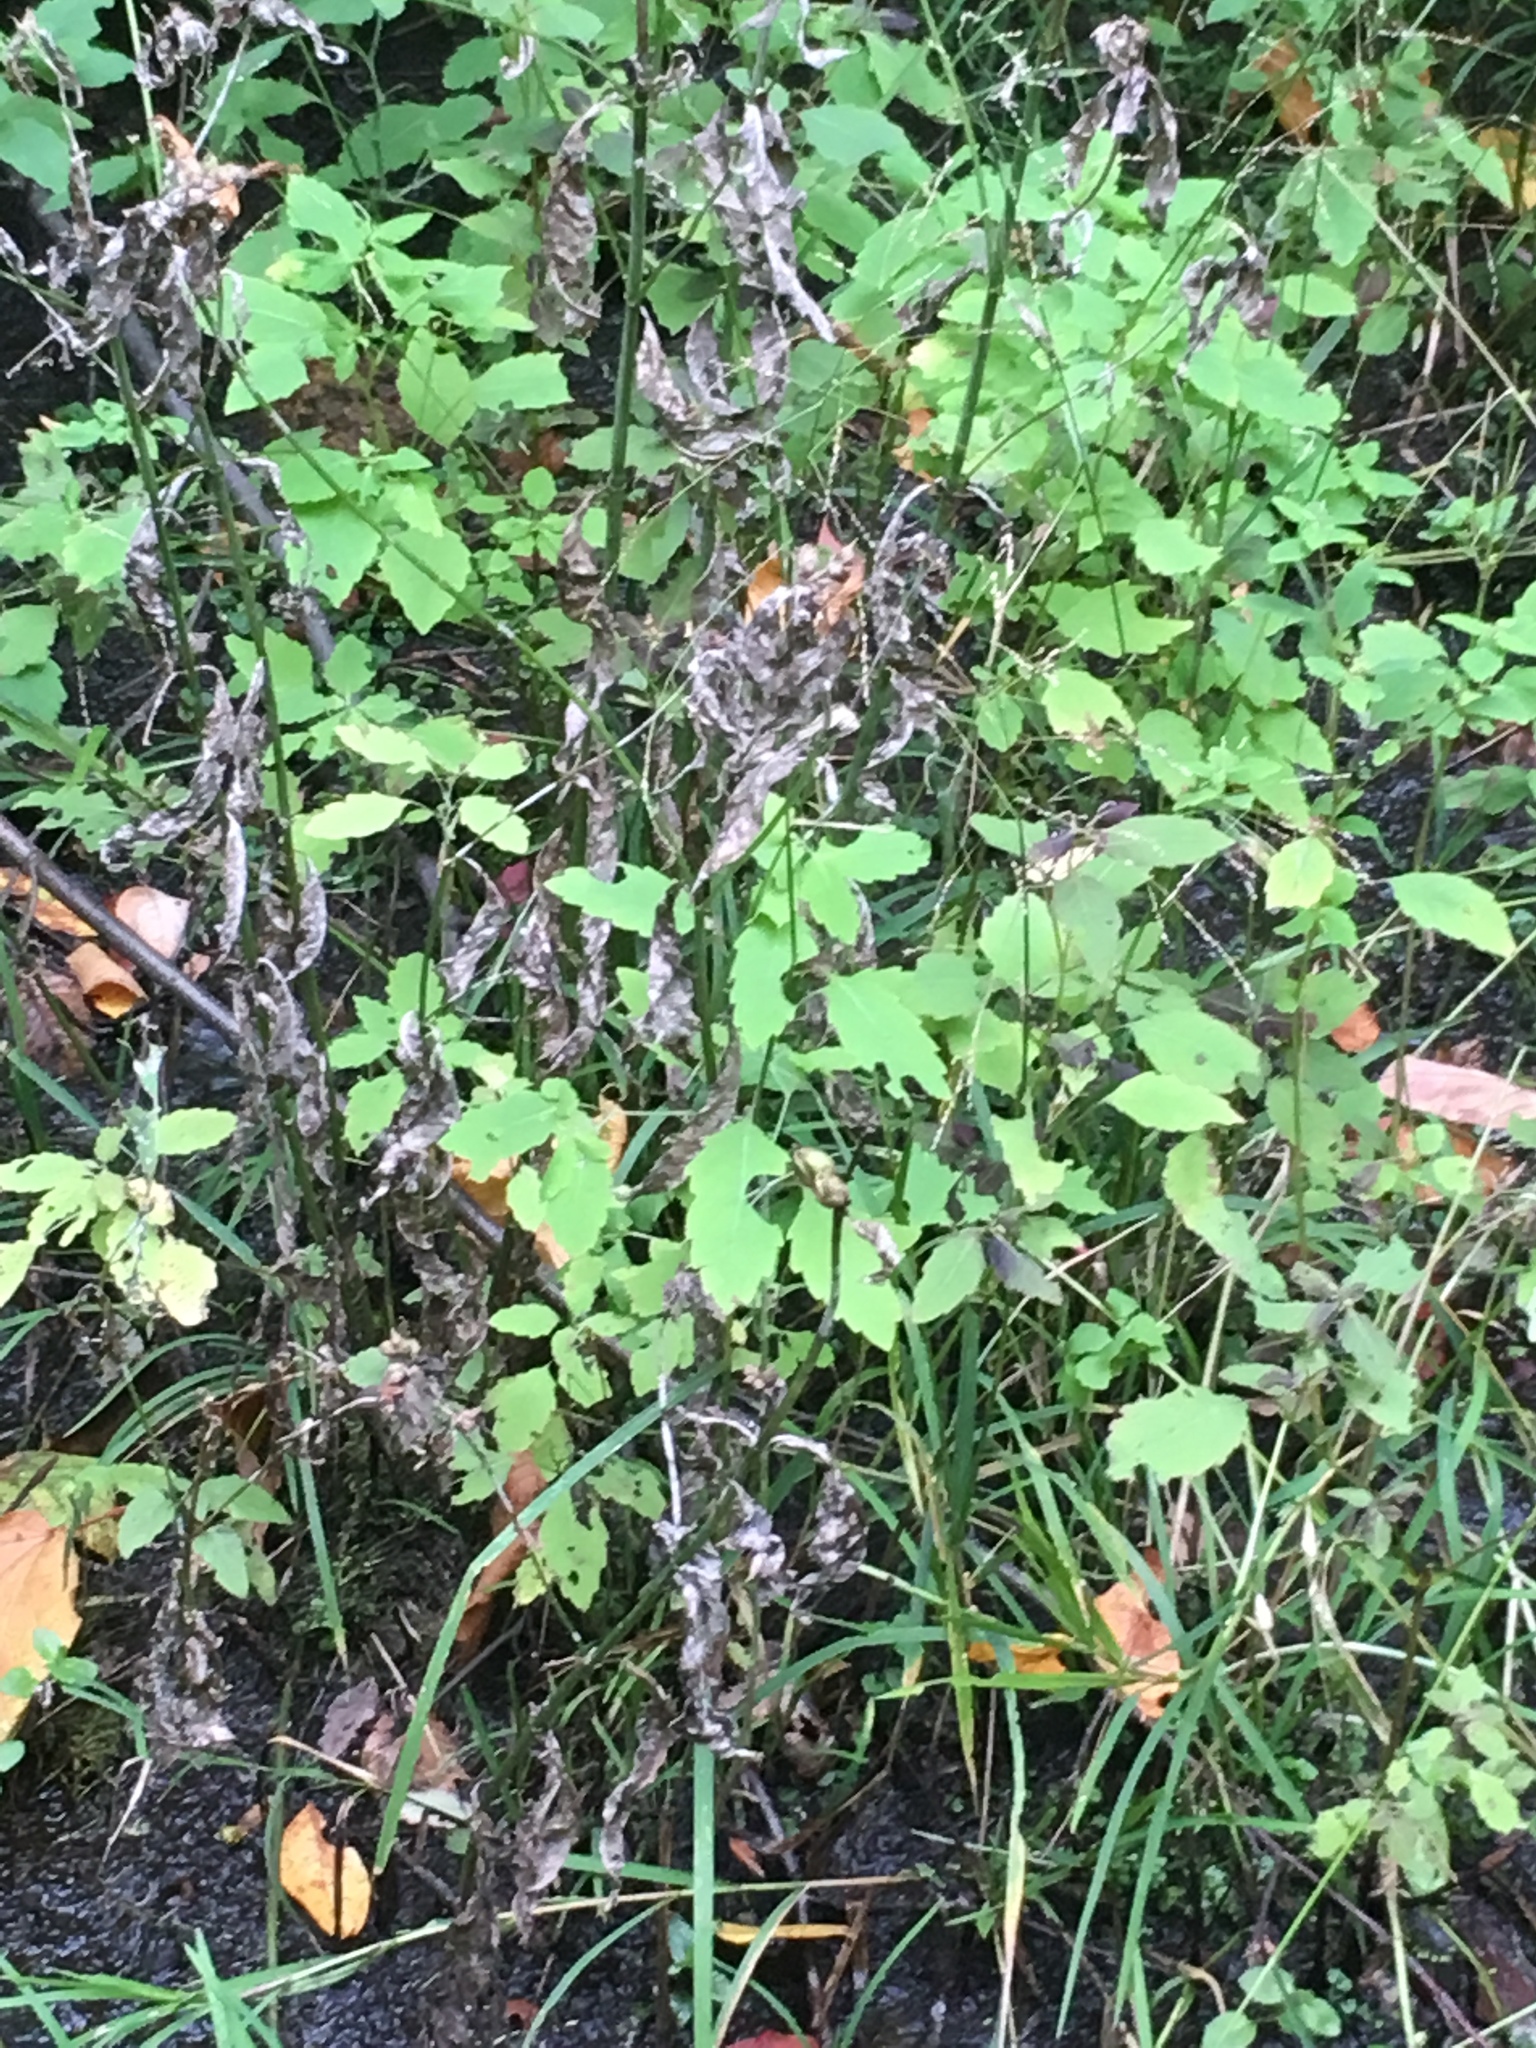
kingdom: Plantae
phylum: Tracheophyta
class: Magnoliopsida
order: Ericales
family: Balsaminaceae
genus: Impatiens
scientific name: Impatiens capensis
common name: Orange balsam
